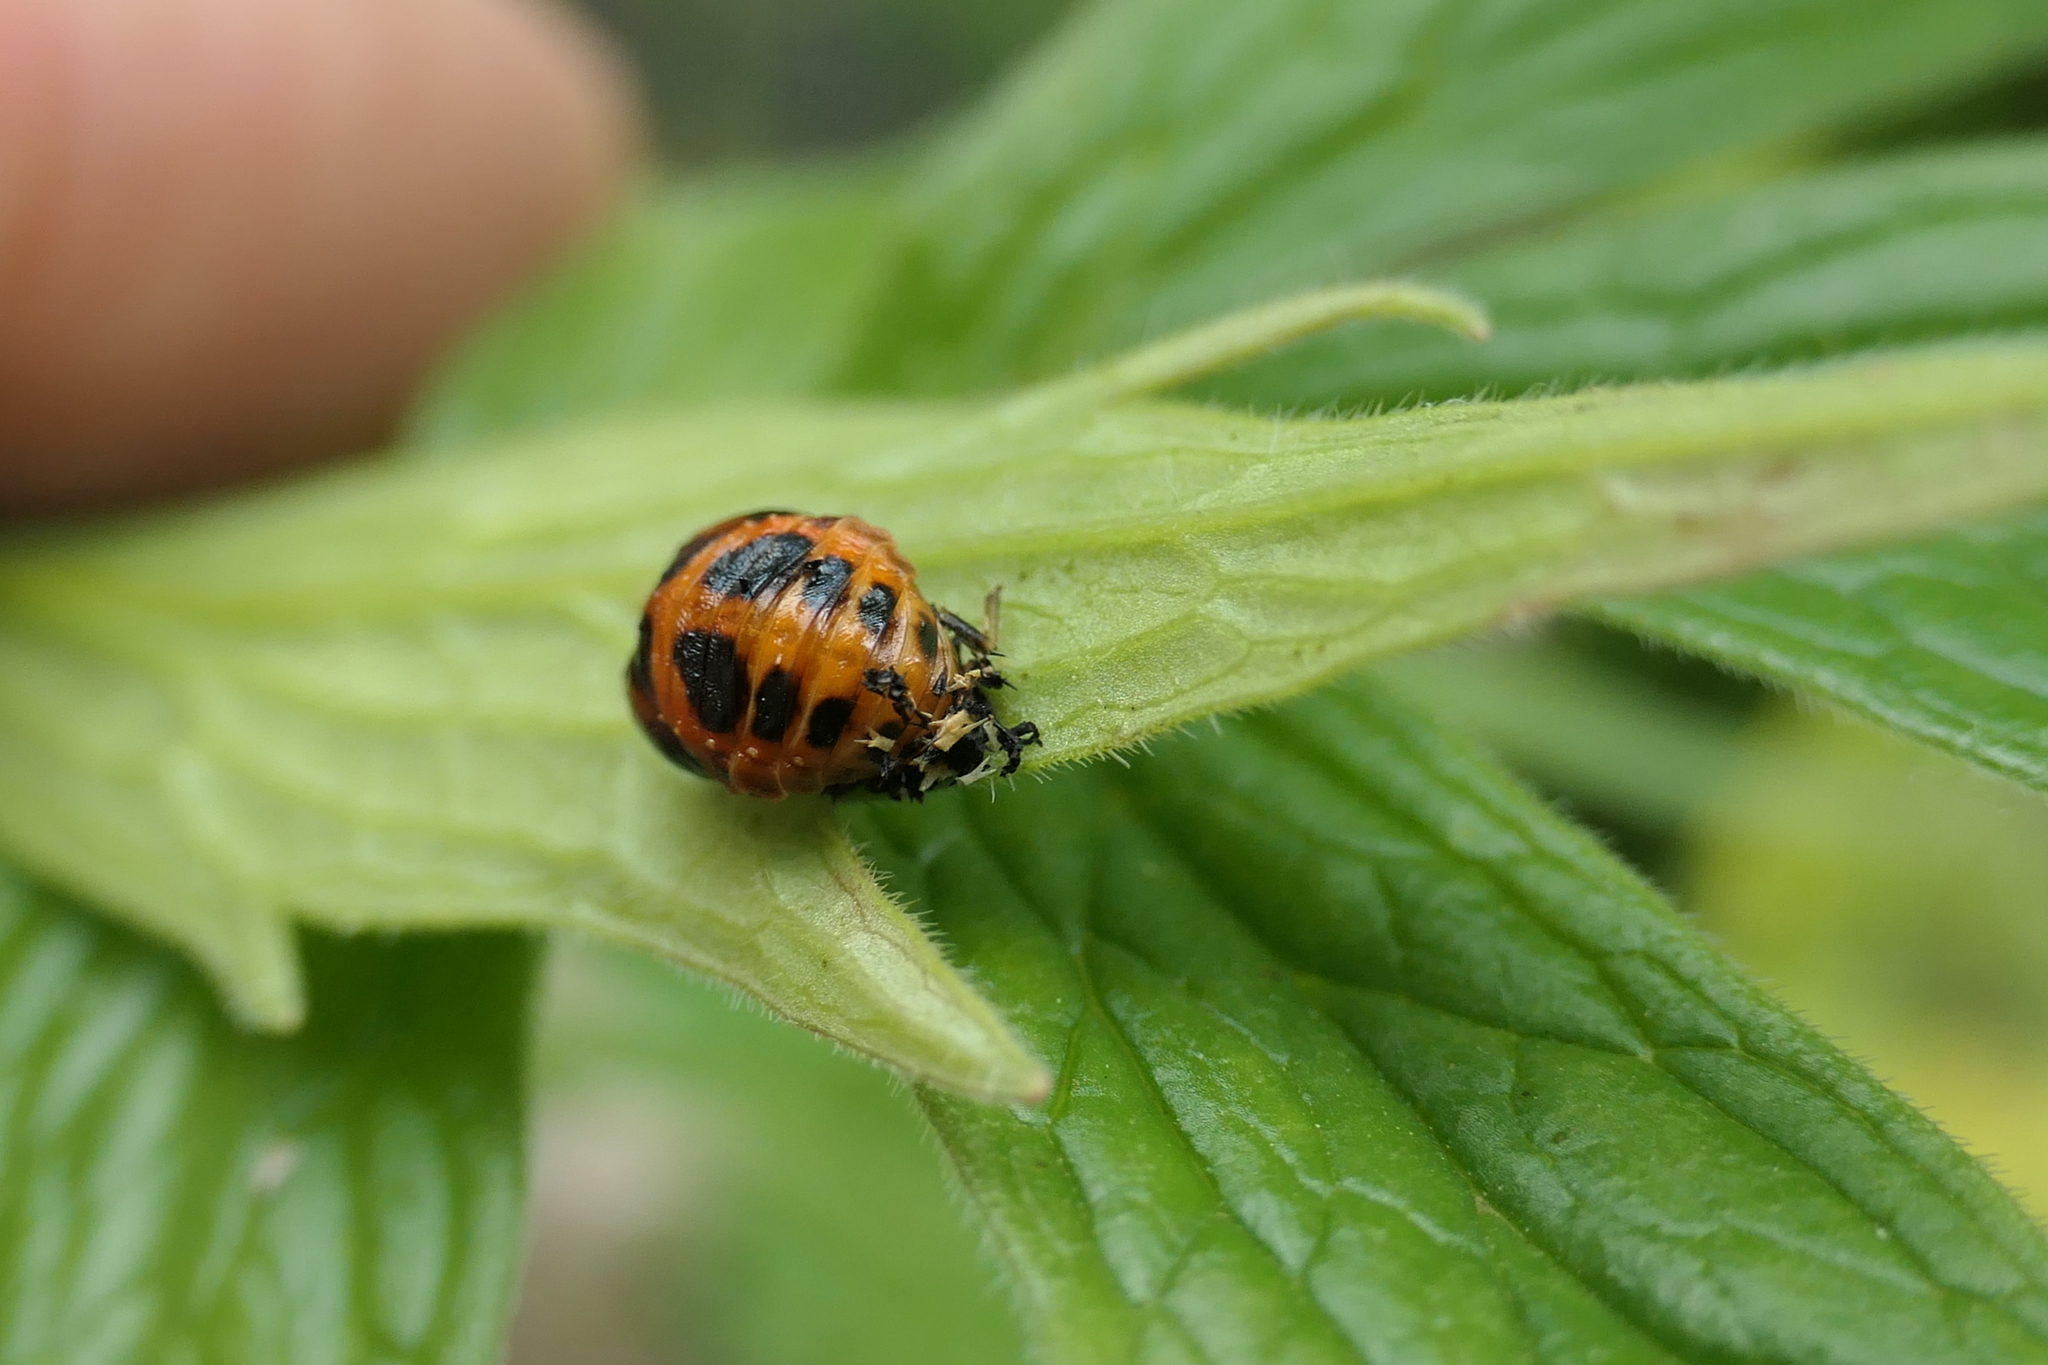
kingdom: Animalia
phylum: Arthropoda
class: Insecta
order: Coleoptera
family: Coccinellidae
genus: Harmonia
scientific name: Harmonia axyridis
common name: Harlequin ladybird
